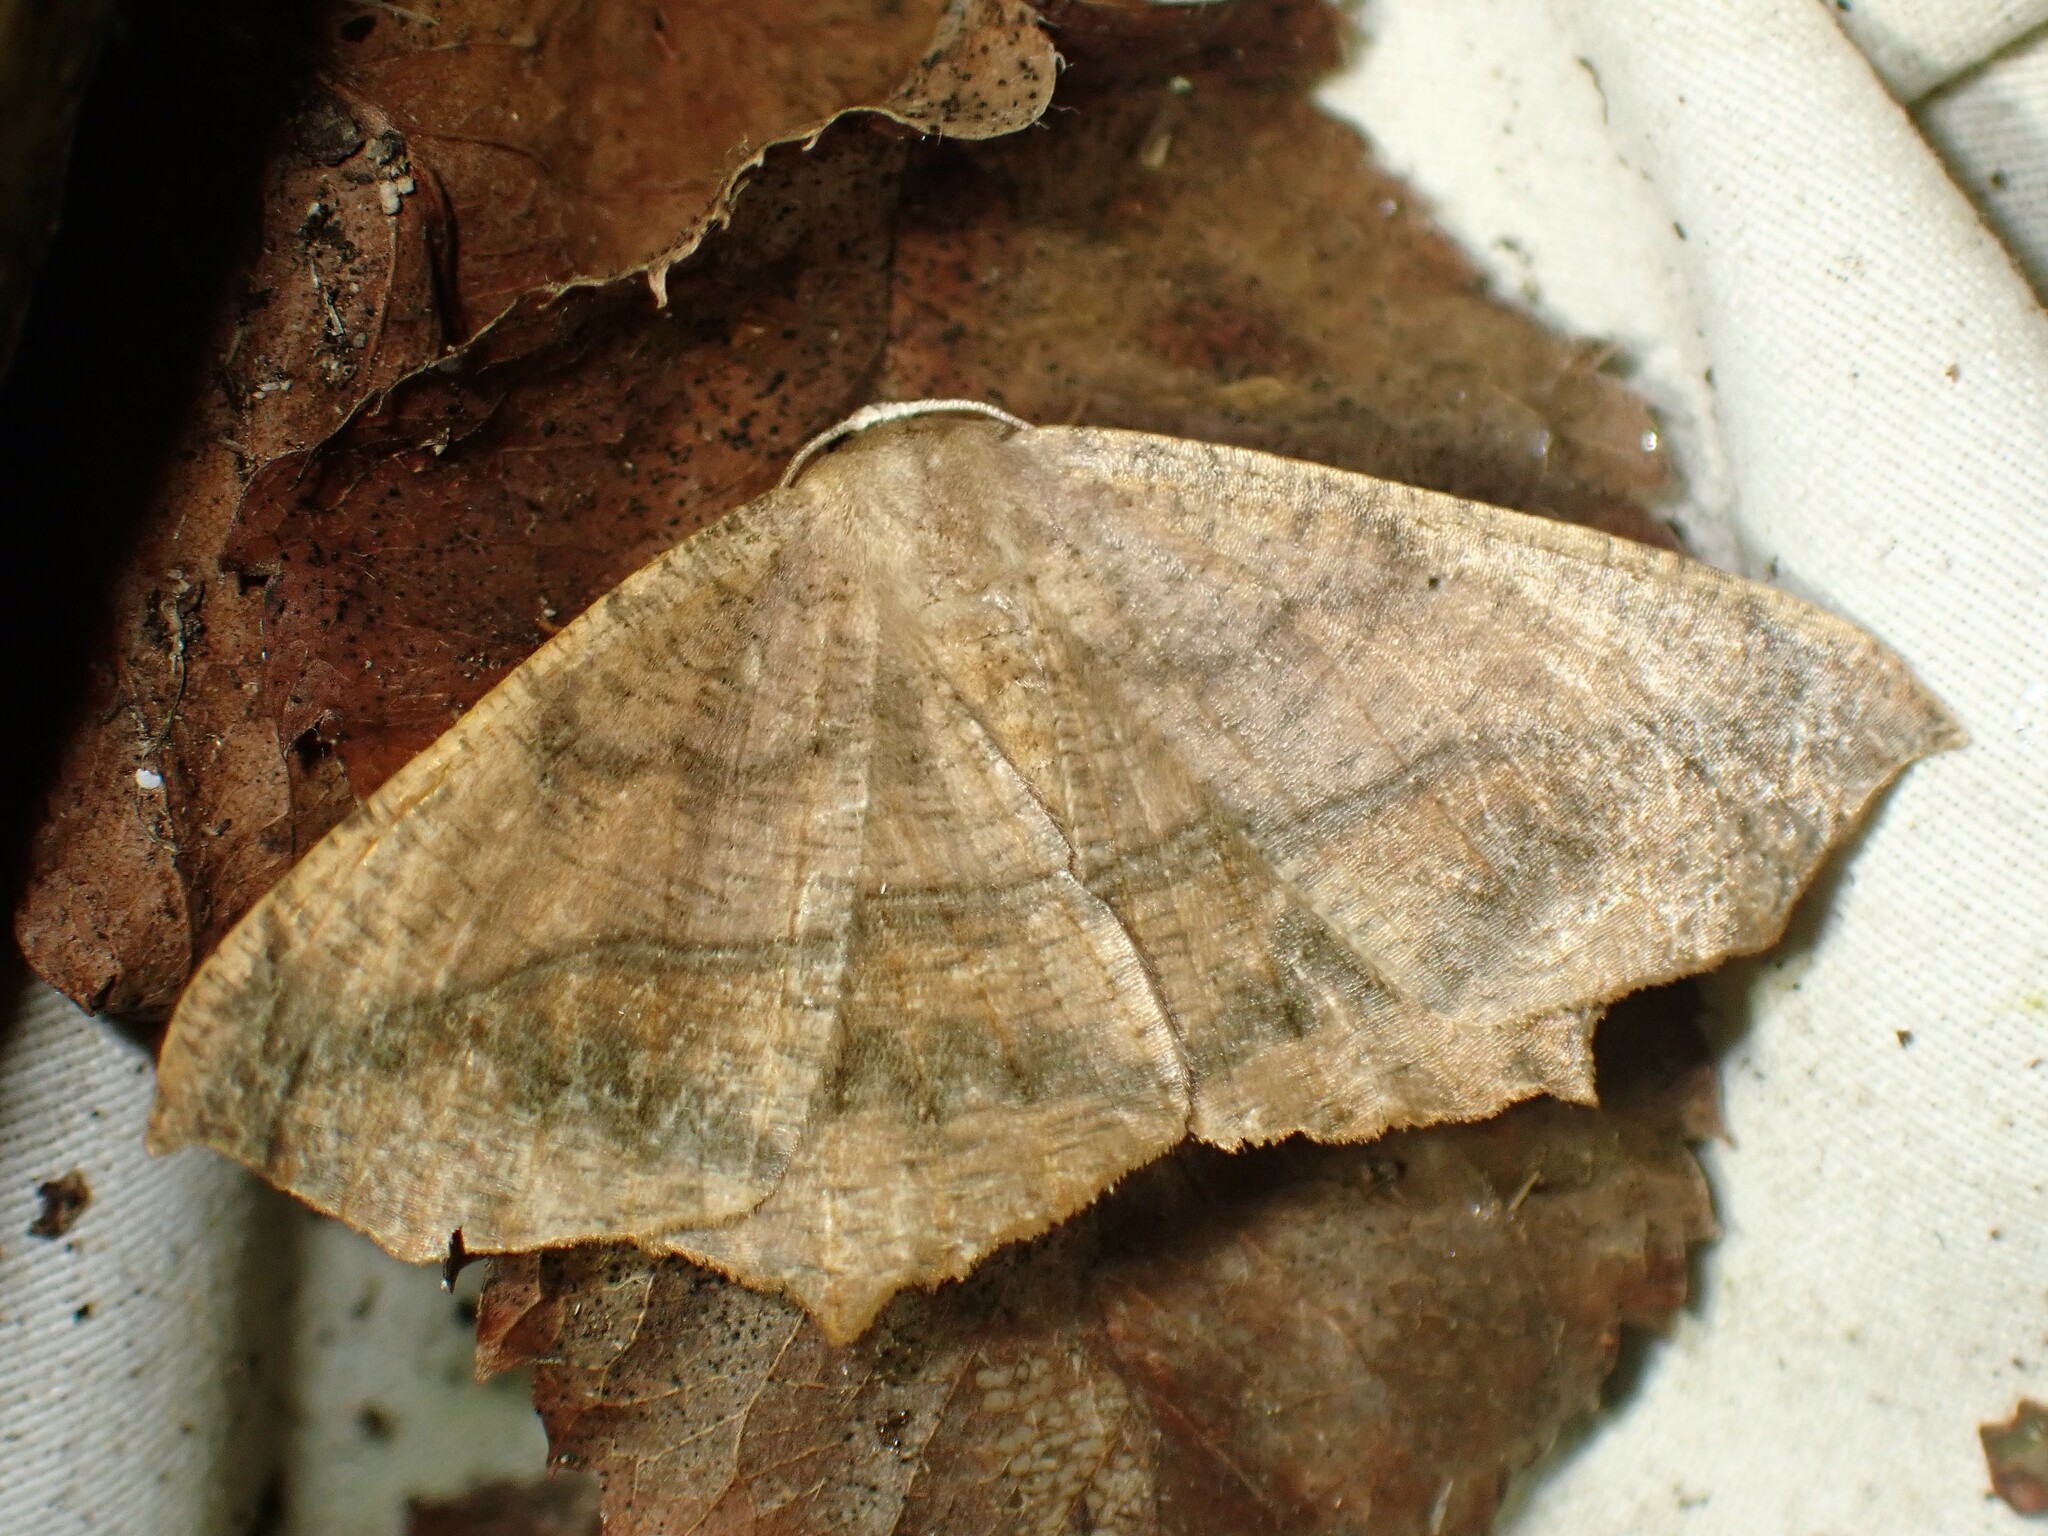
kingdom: Animalia
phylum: Arthropoda
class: Insecta
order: Lepidoptera
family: Geometridae
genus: Prochoerodes
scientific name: Prochoerodes lineola
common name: Large maple spanworm
